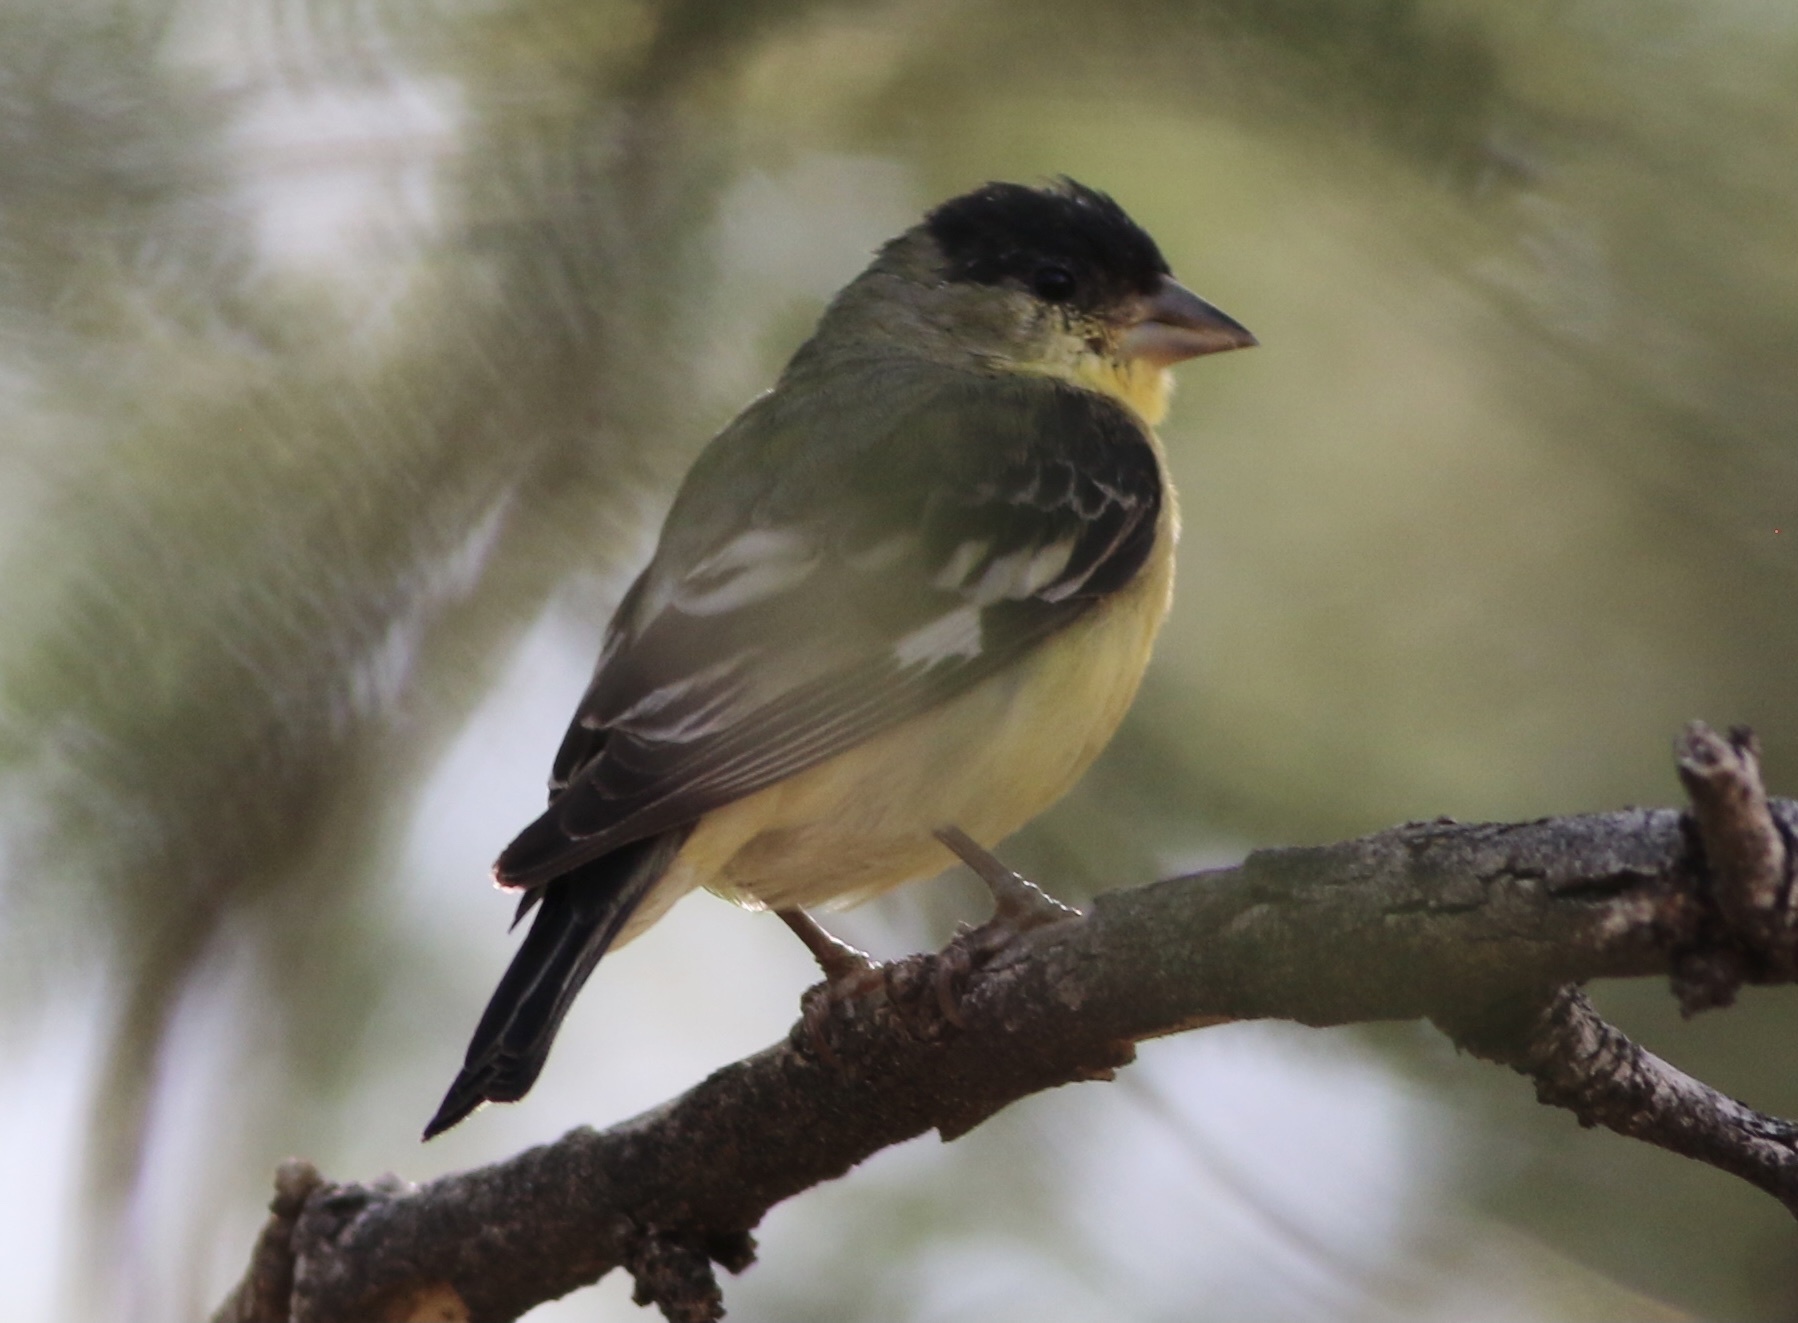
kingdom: Animalia
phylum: Chordata
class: Aves
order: Passeriformes
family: Fringillidae
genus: Spinus
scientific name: Spinus psaltria
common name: Lesser goldfinch
